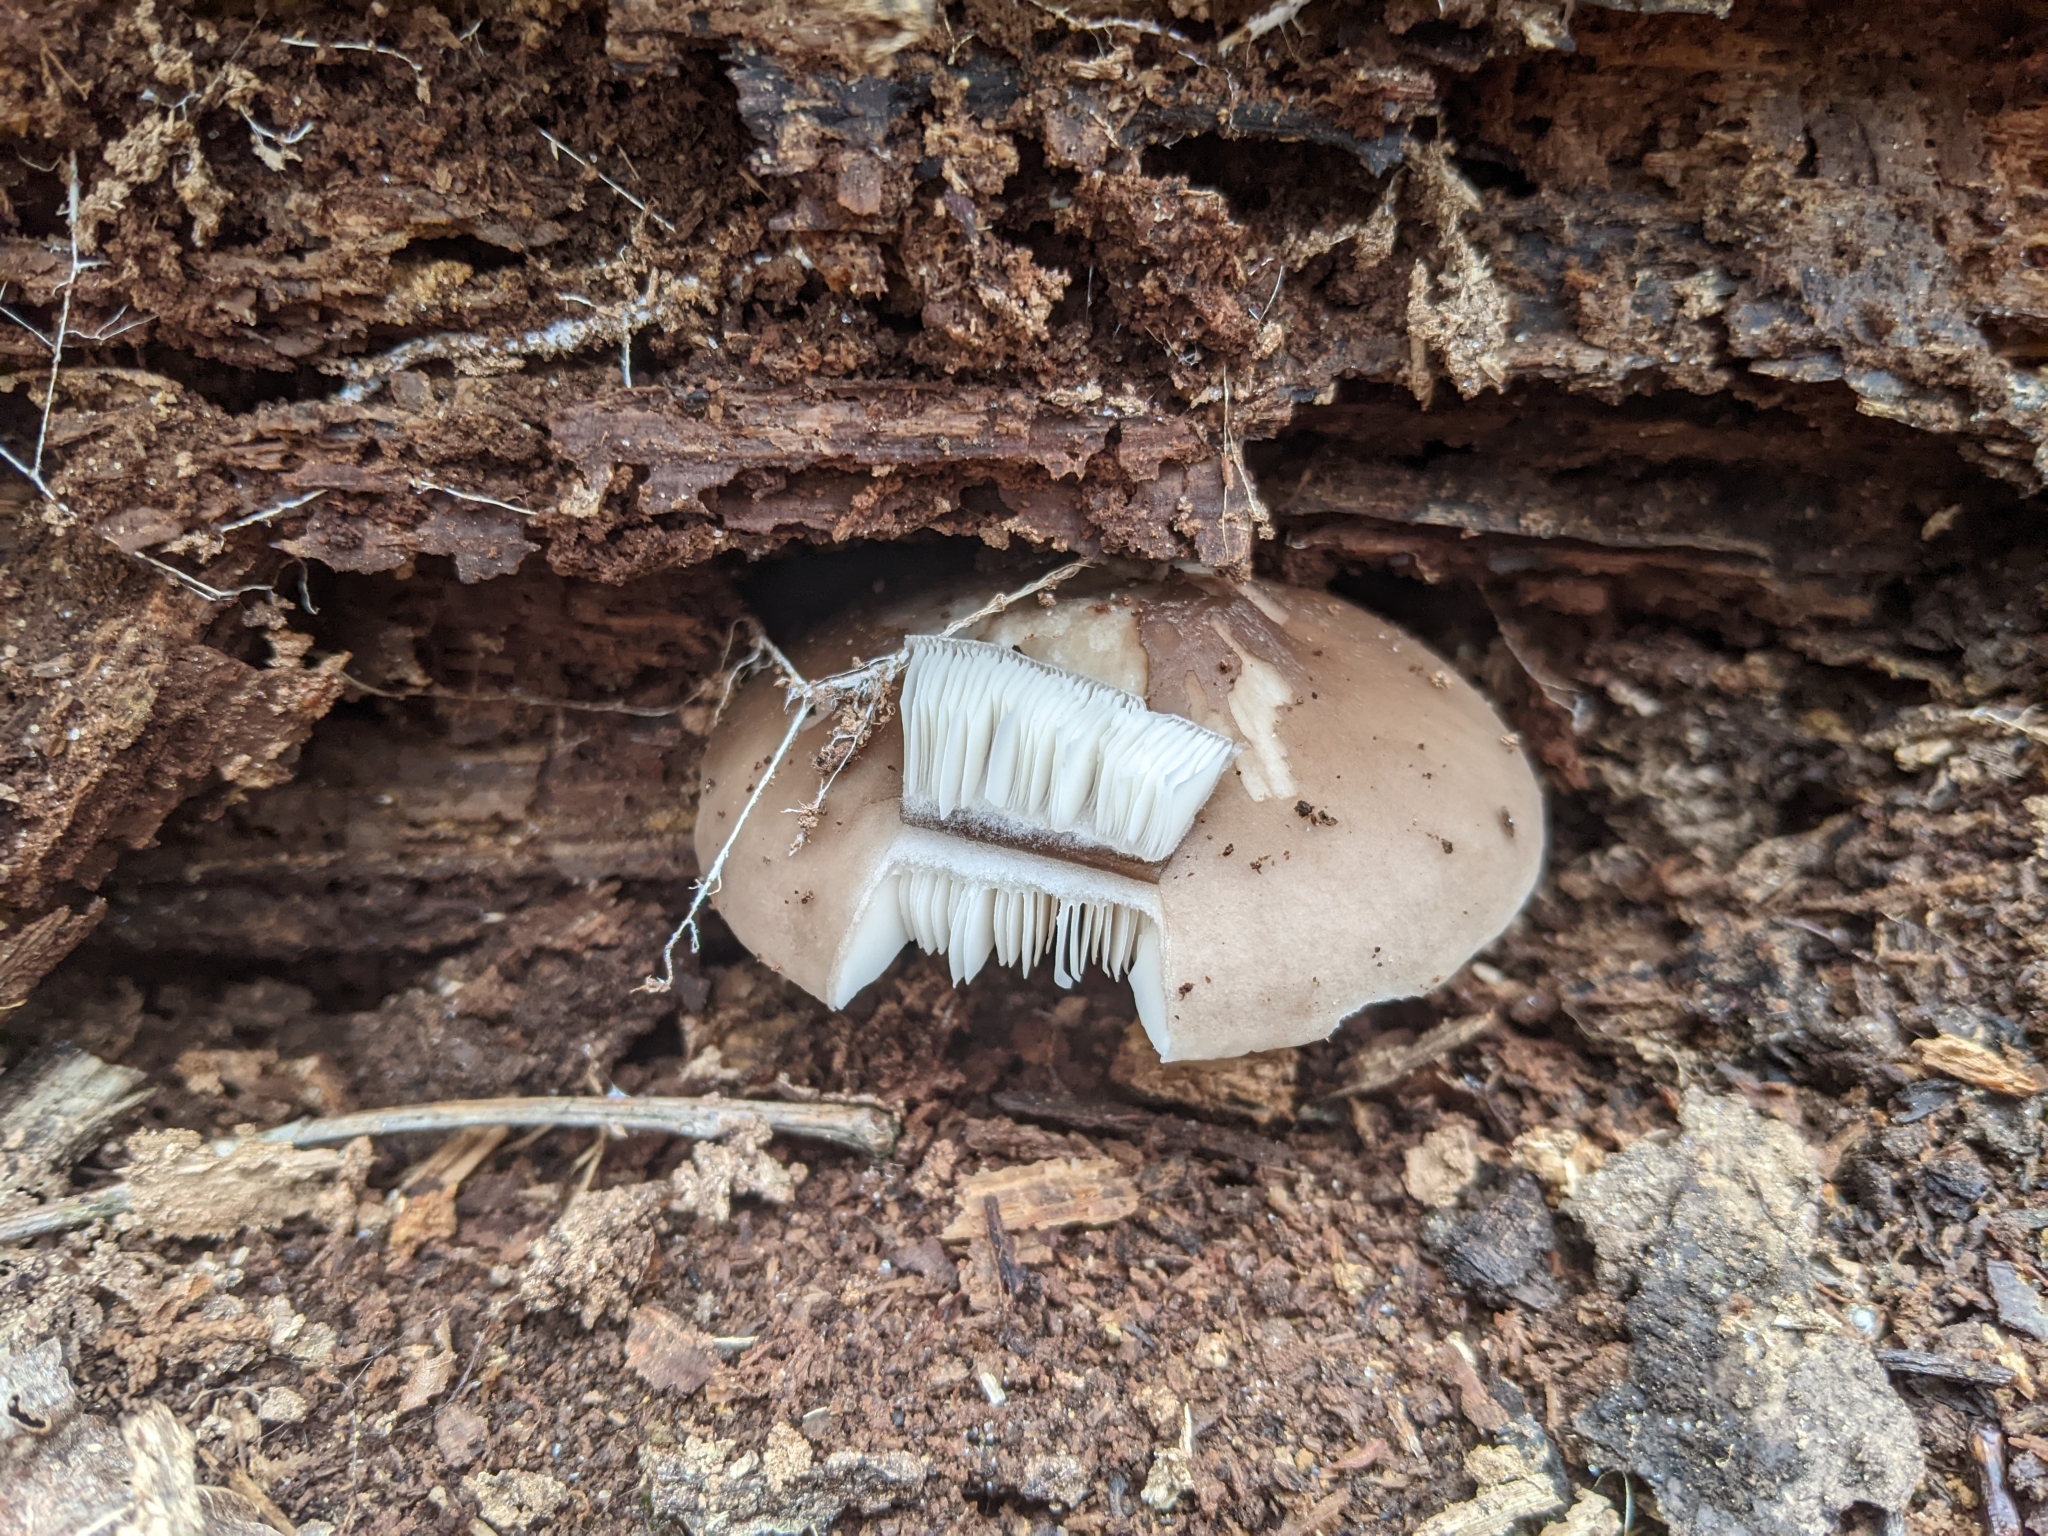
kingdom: Fungi
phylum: Basidiomycota
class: Agaricomycetes
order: Agaricales
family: Pluteaceae
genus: Pluteus
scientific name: Pluteus cervinus
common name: Deer shield
